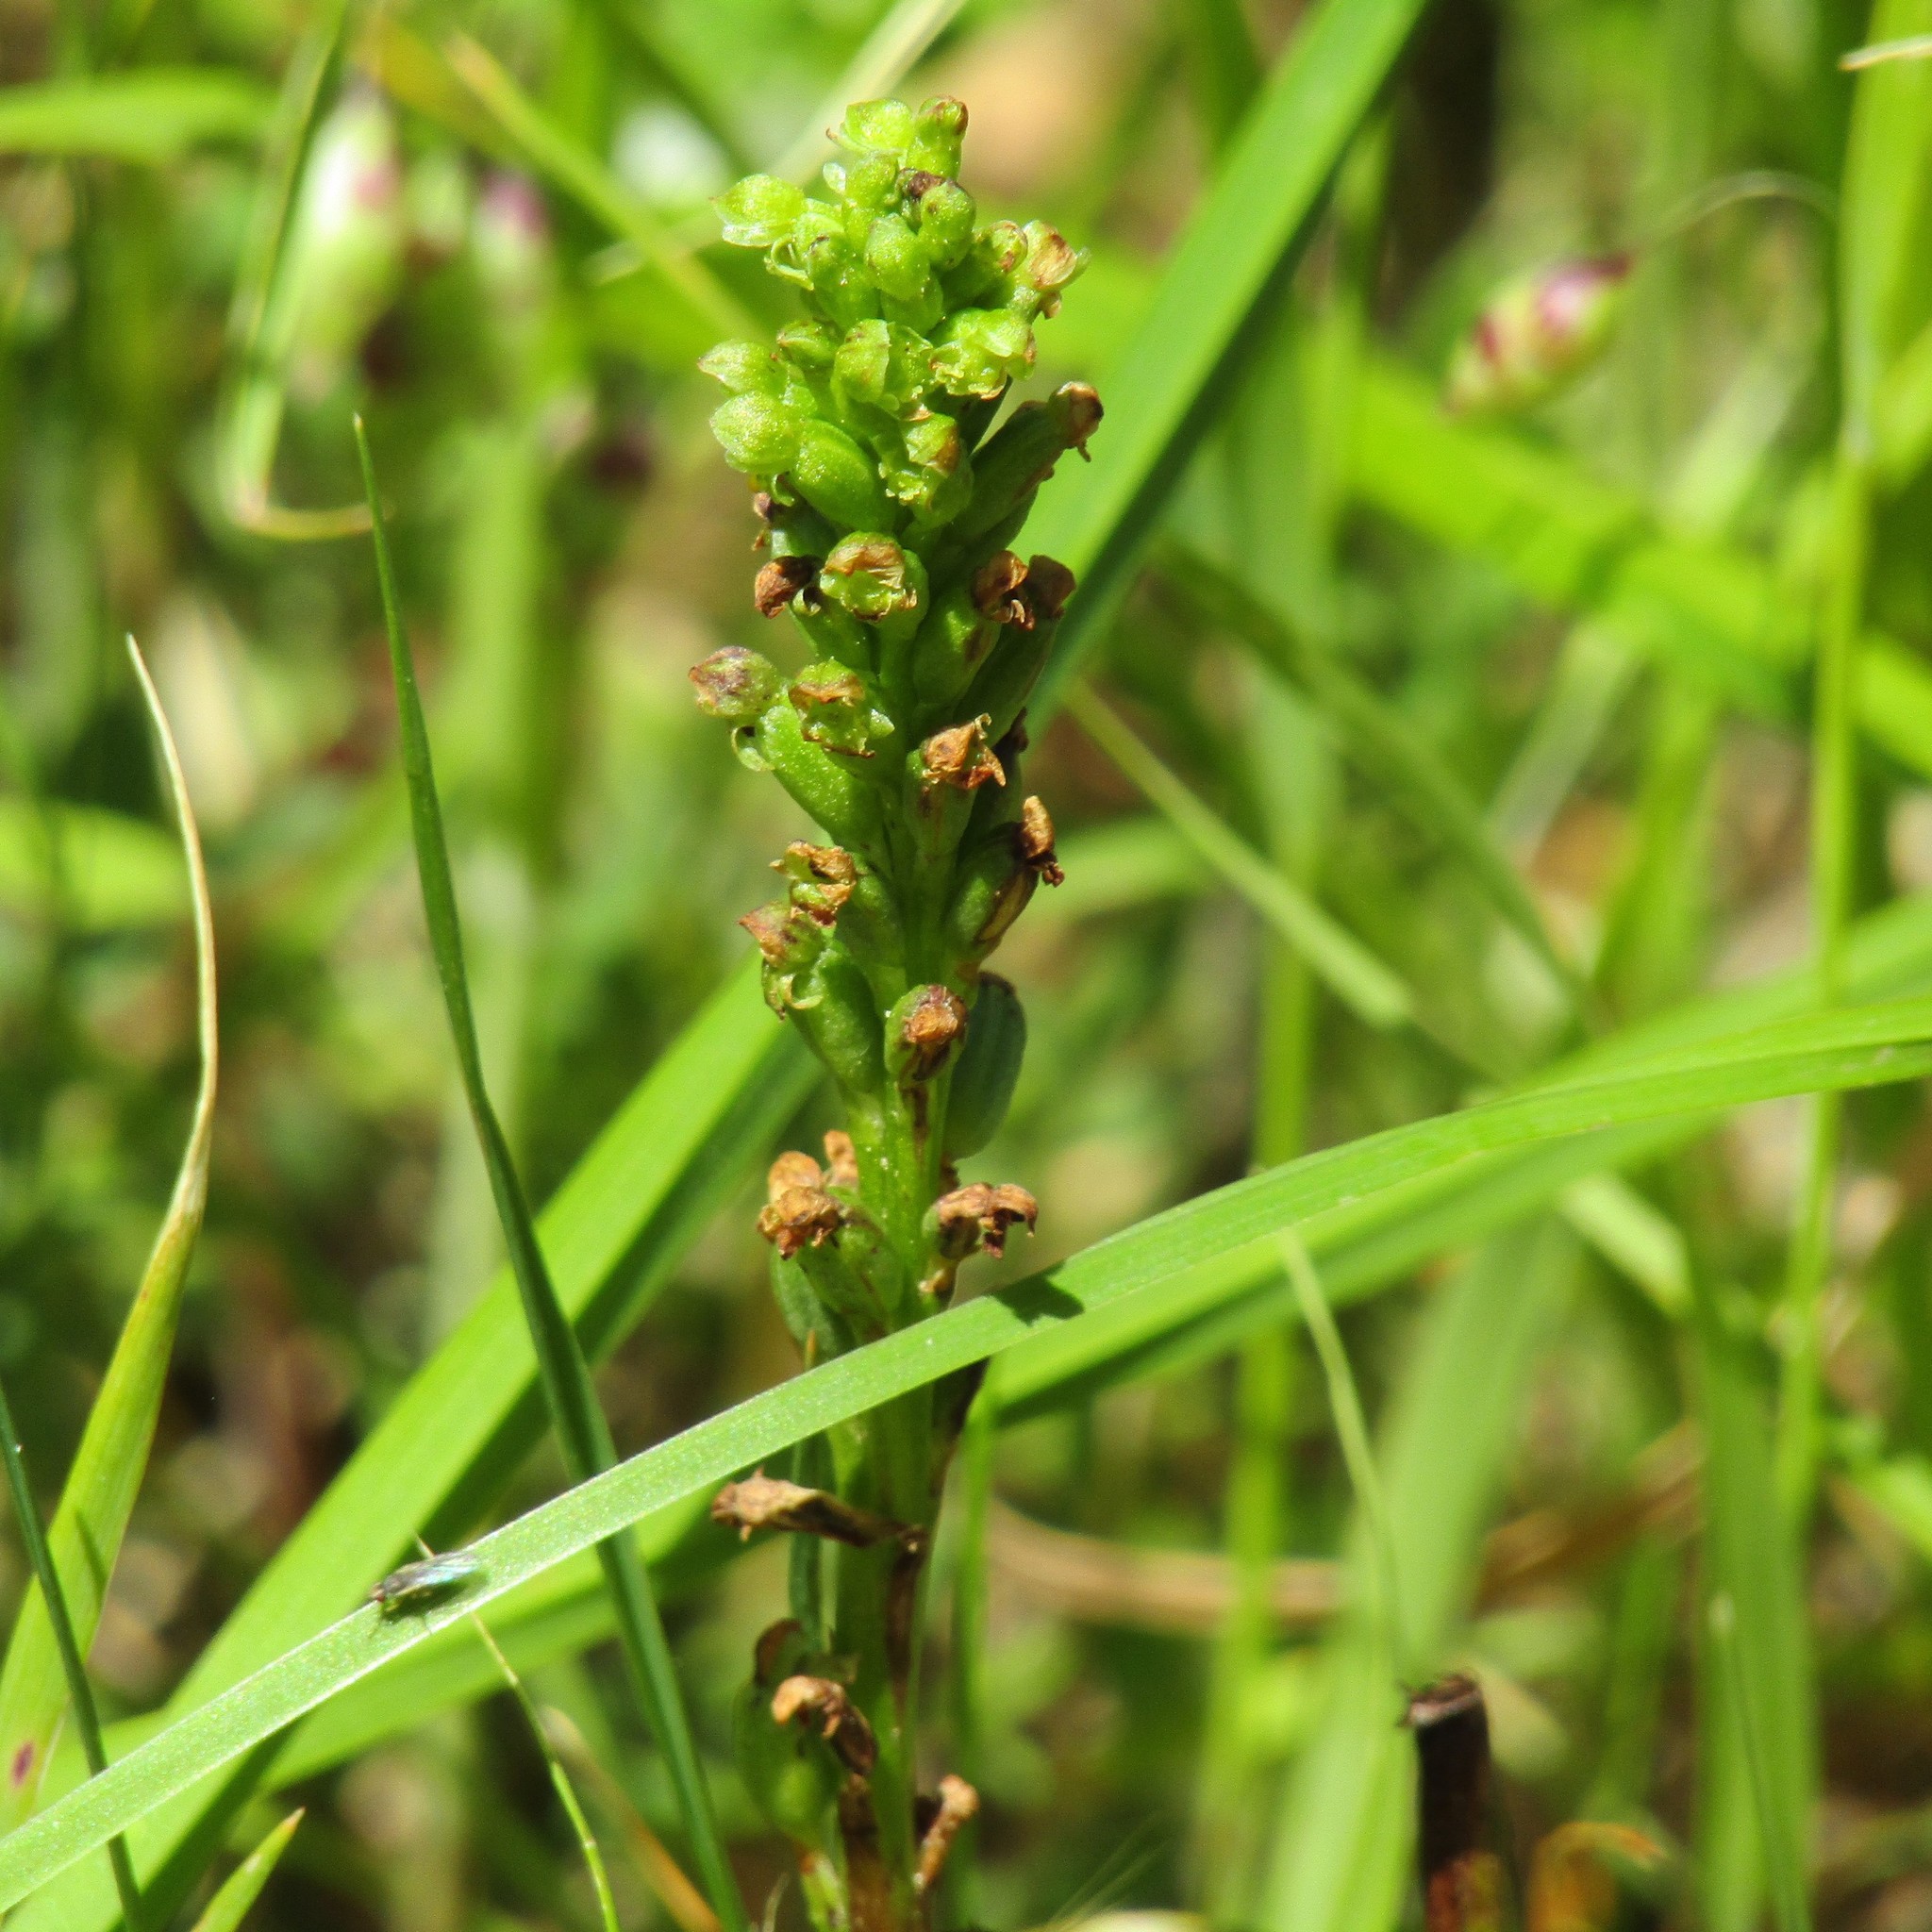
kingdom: Plantae
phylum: Tracheophyta
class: Liliopsida
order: Asparagales
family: Orchidaceae
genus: Microtis
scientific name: Microtis unifolia
